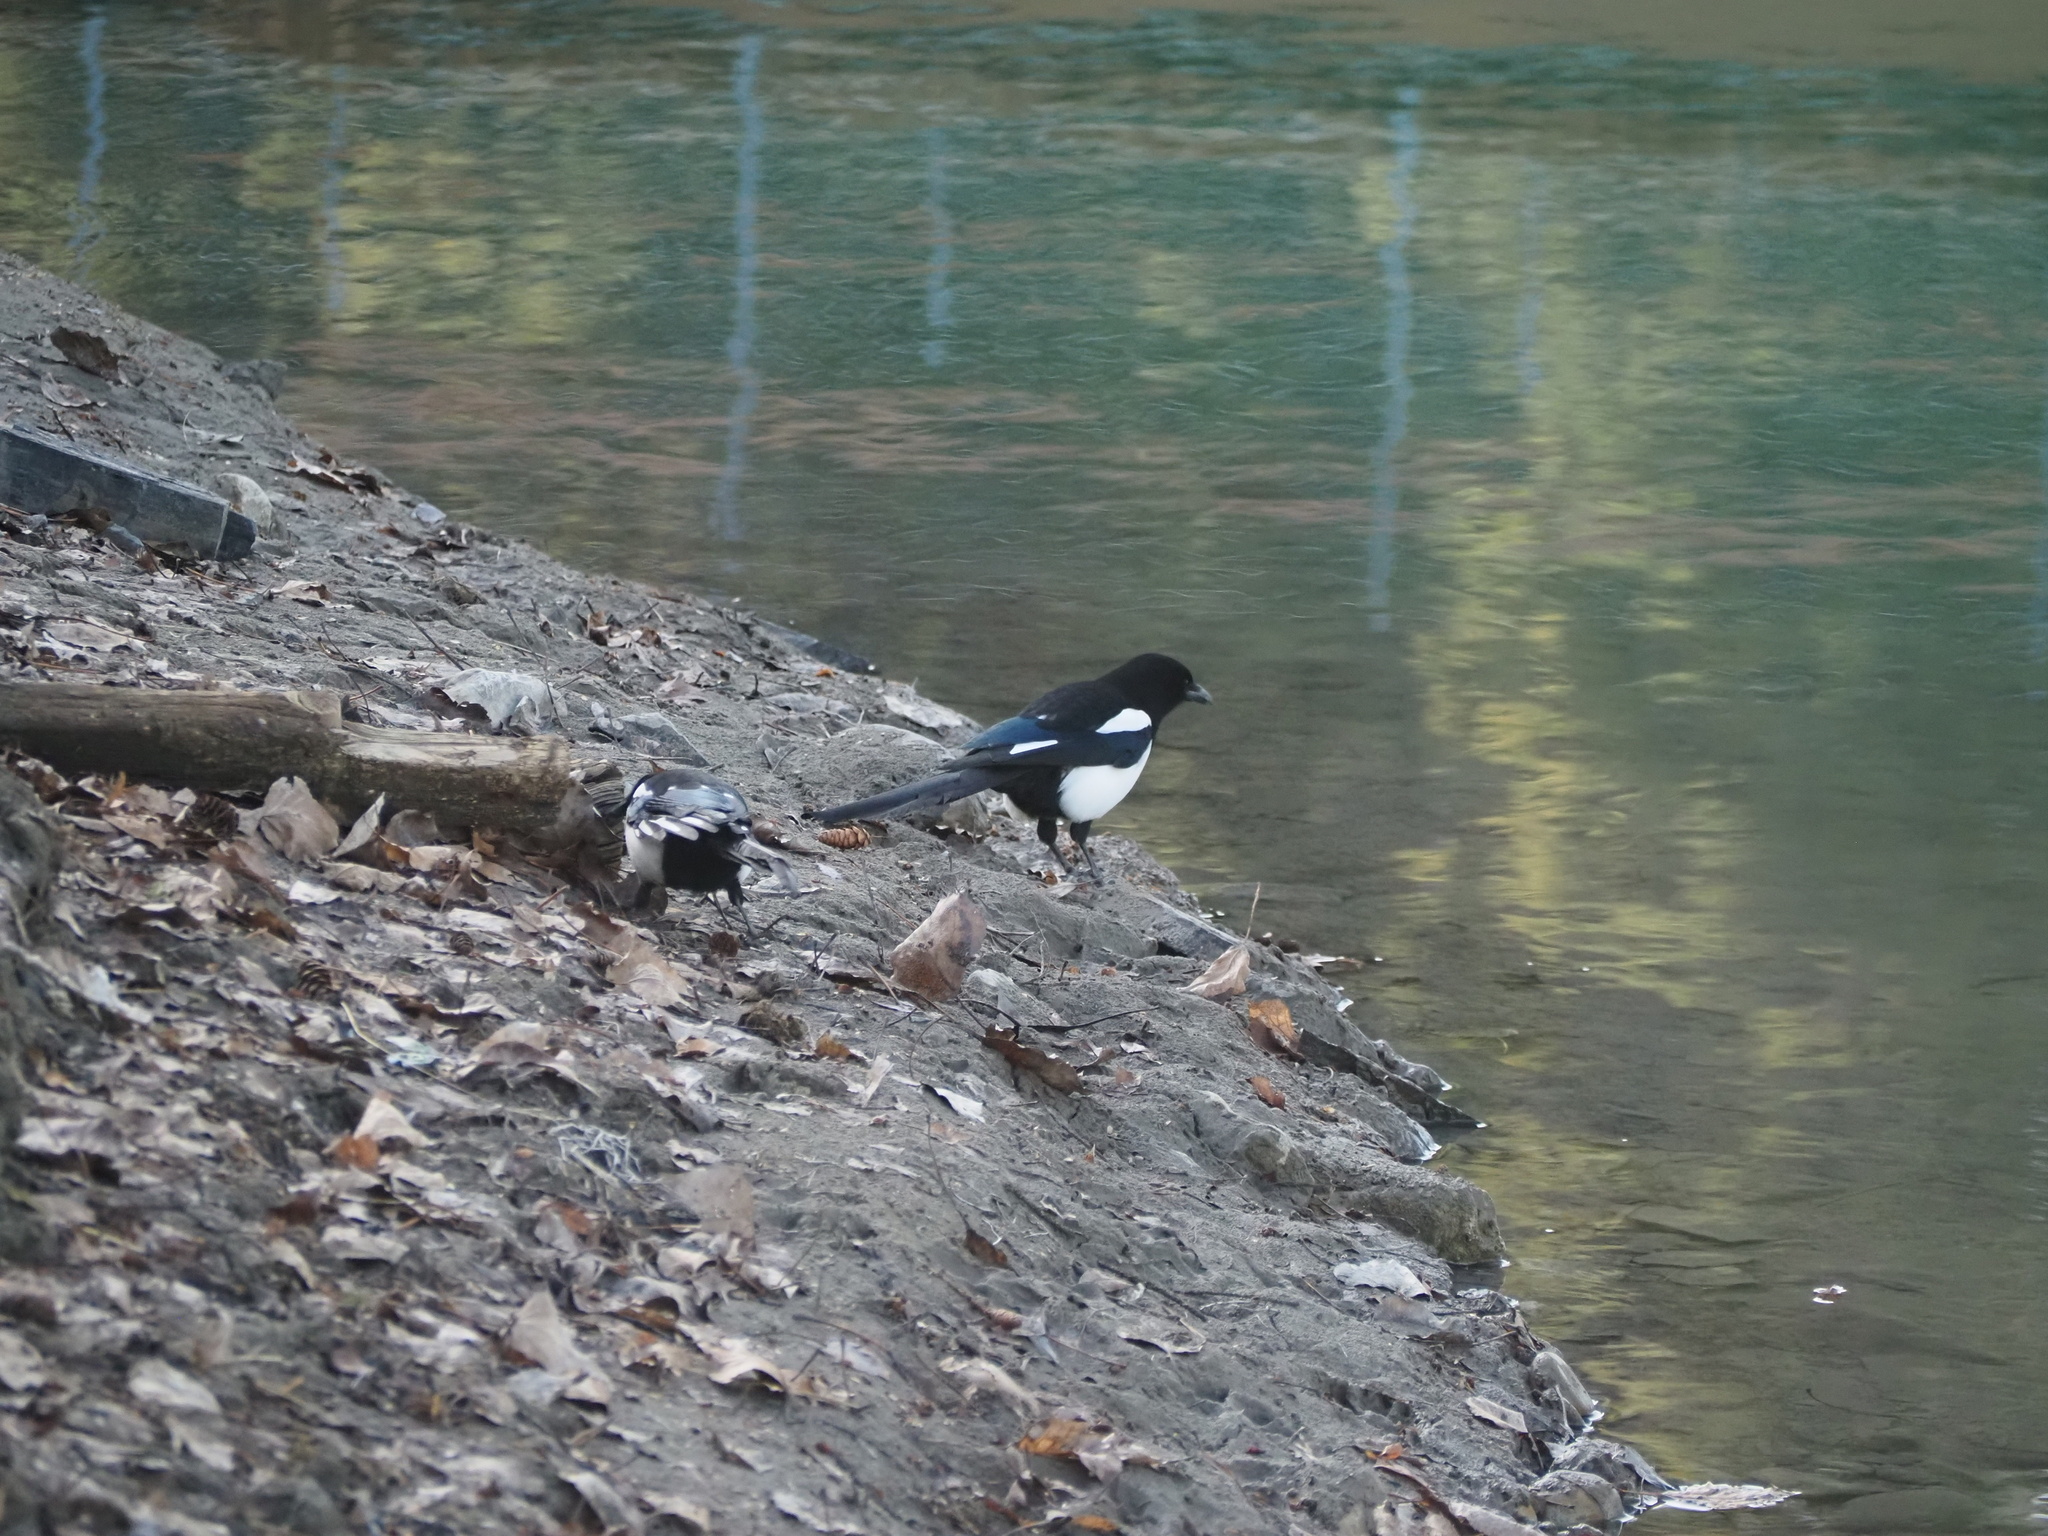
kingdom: Animalia
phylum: Chordata
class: Aves
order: Passeriformes
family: Corvidae
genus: Pica
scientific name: Pica hudsonia
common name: Black-billed magpie
